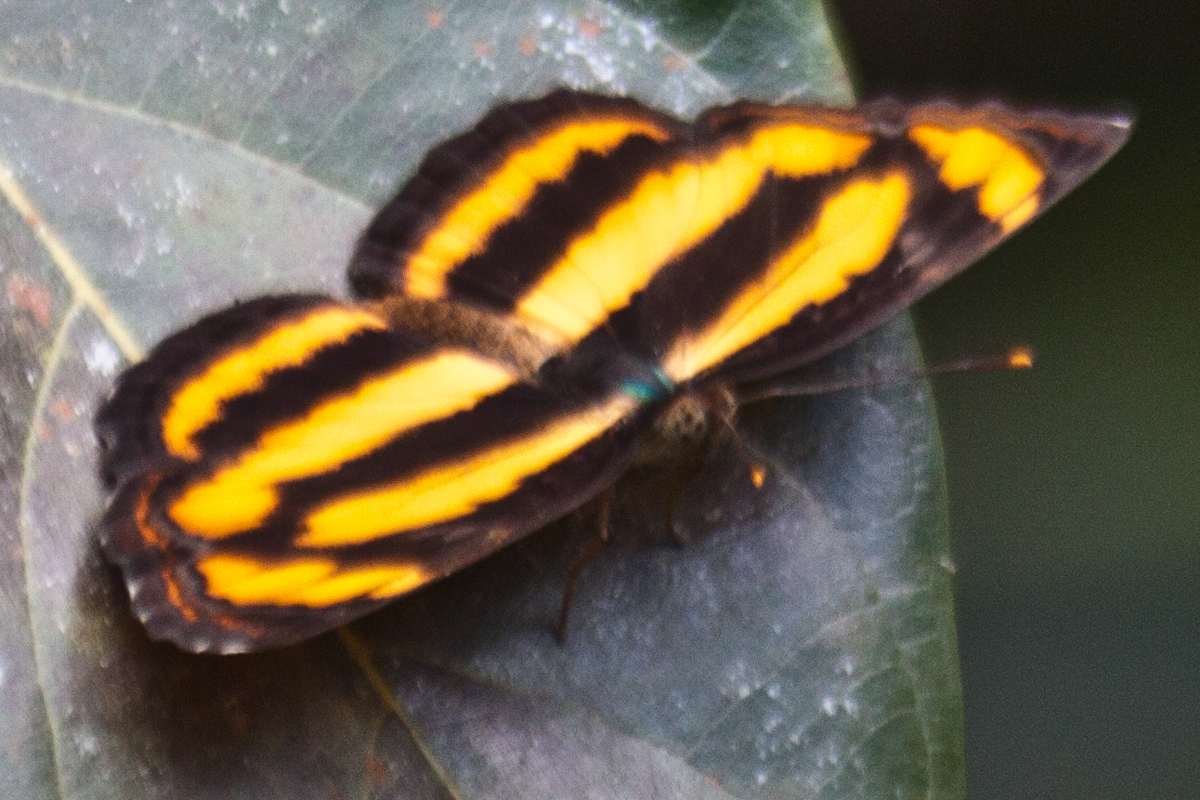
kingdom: Animalia
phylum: Arthropoda
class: Insecta
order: Lepidoptera
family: Nymphalidae
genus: Pantoporia
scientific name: Pantoporia hordonia
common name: Common lascar
